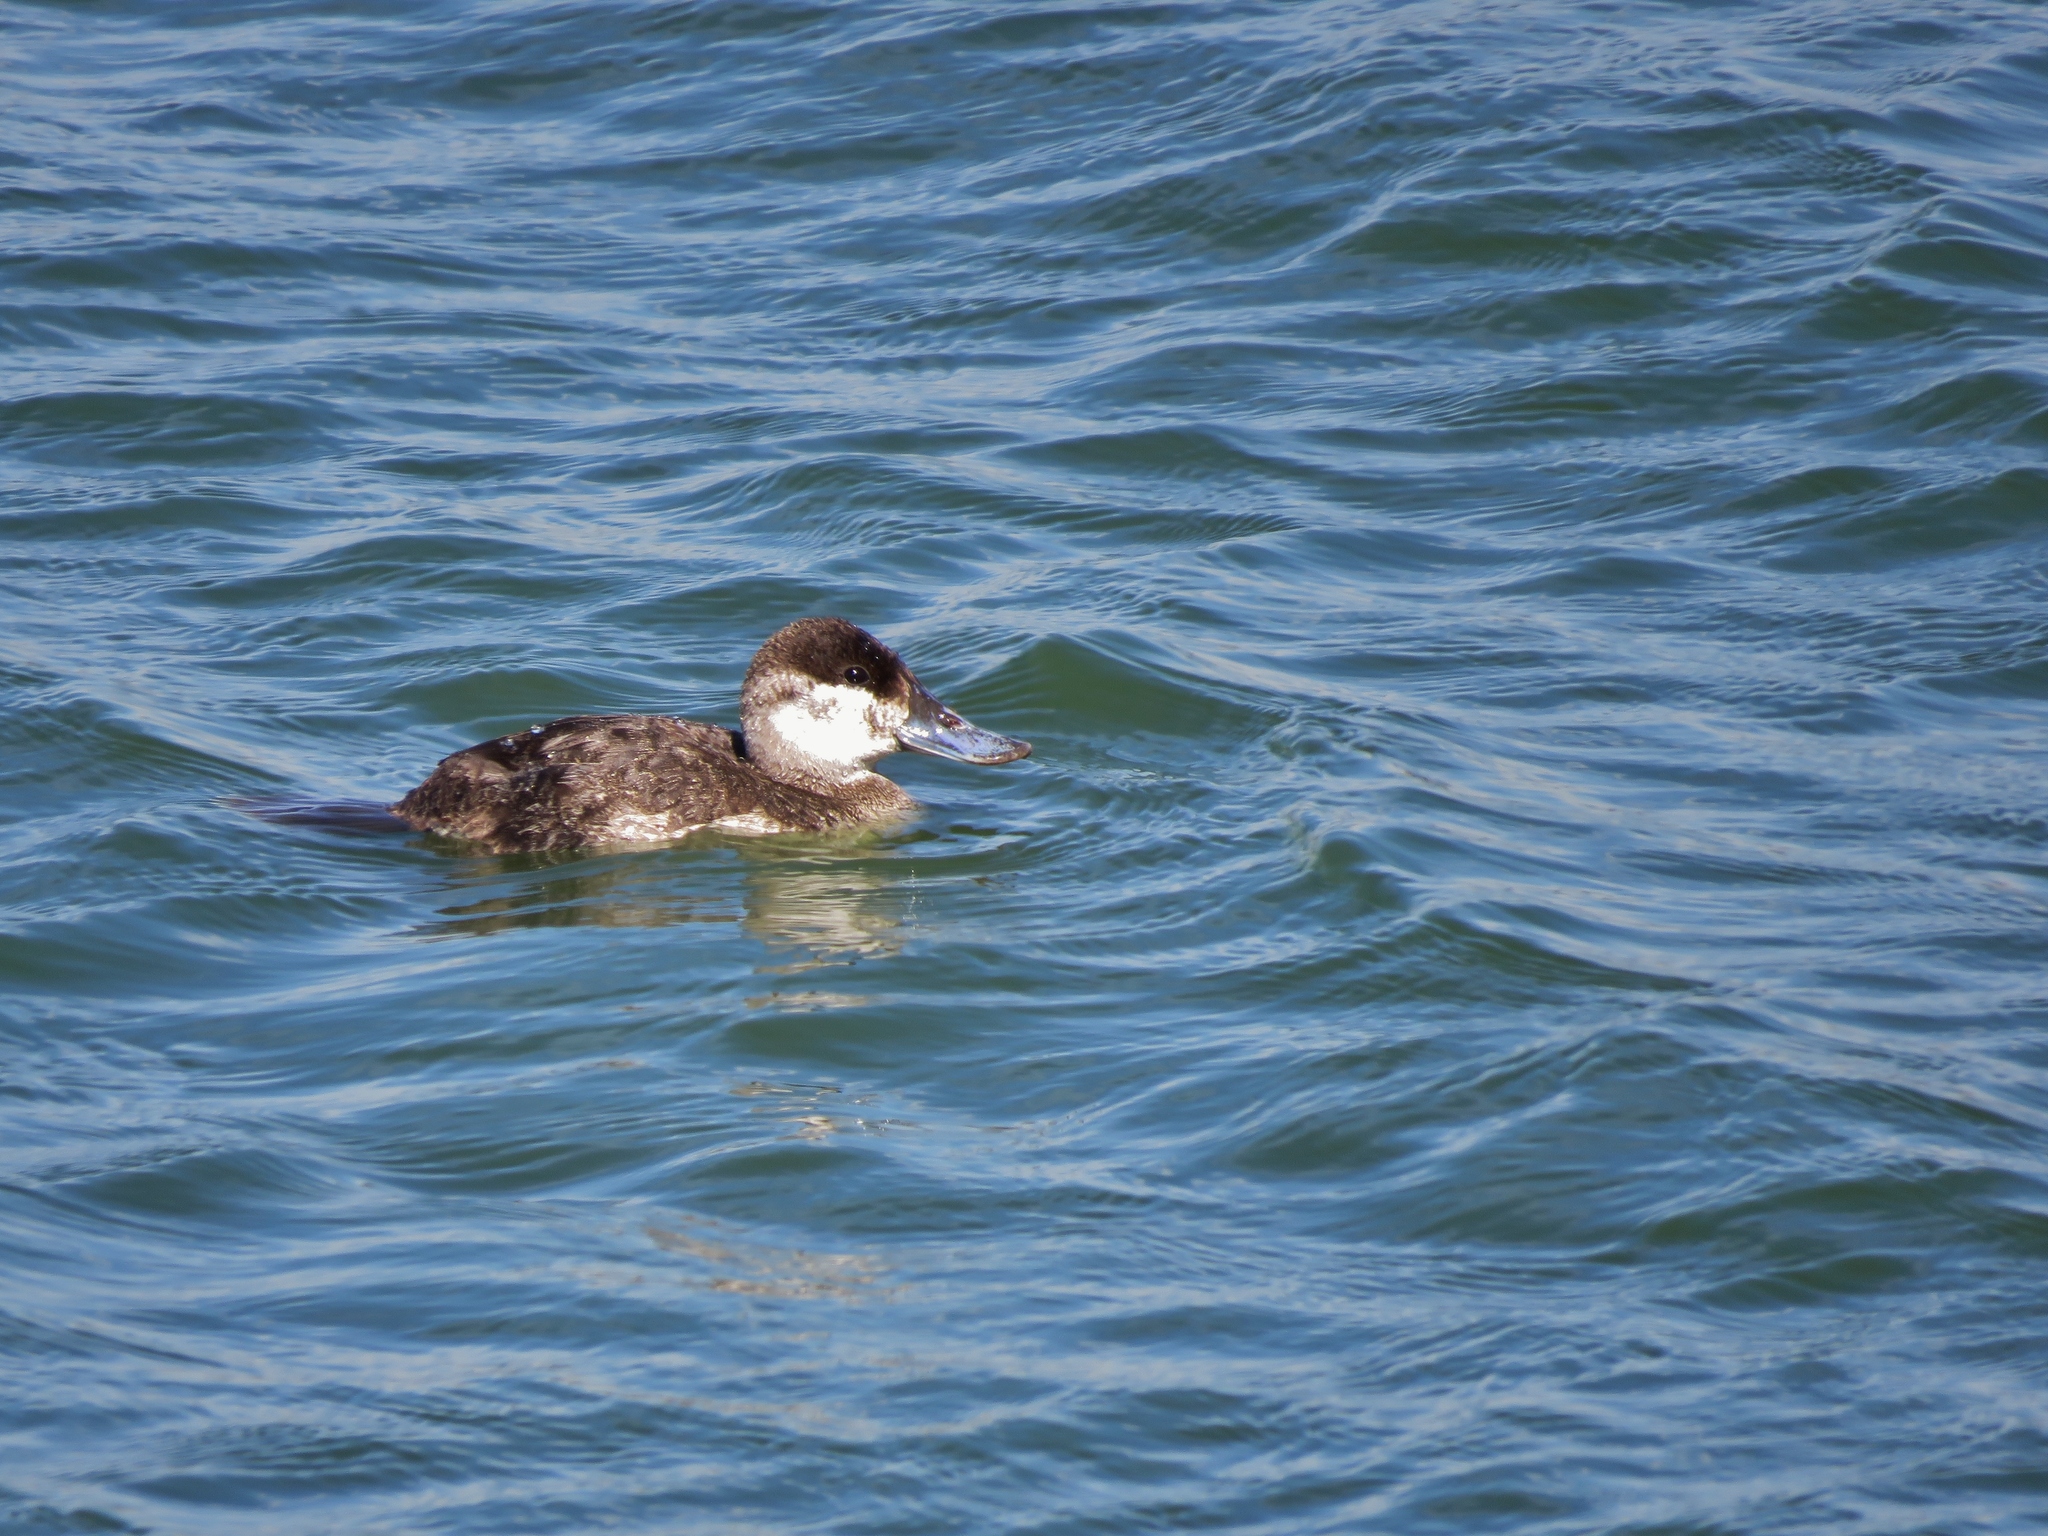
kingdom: Animalia
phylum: Chordata
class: Aves
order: Anseriformes
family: Anatidae
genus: Oxyura
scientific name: Oxyura jamaicensis
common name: Ruddy duck
